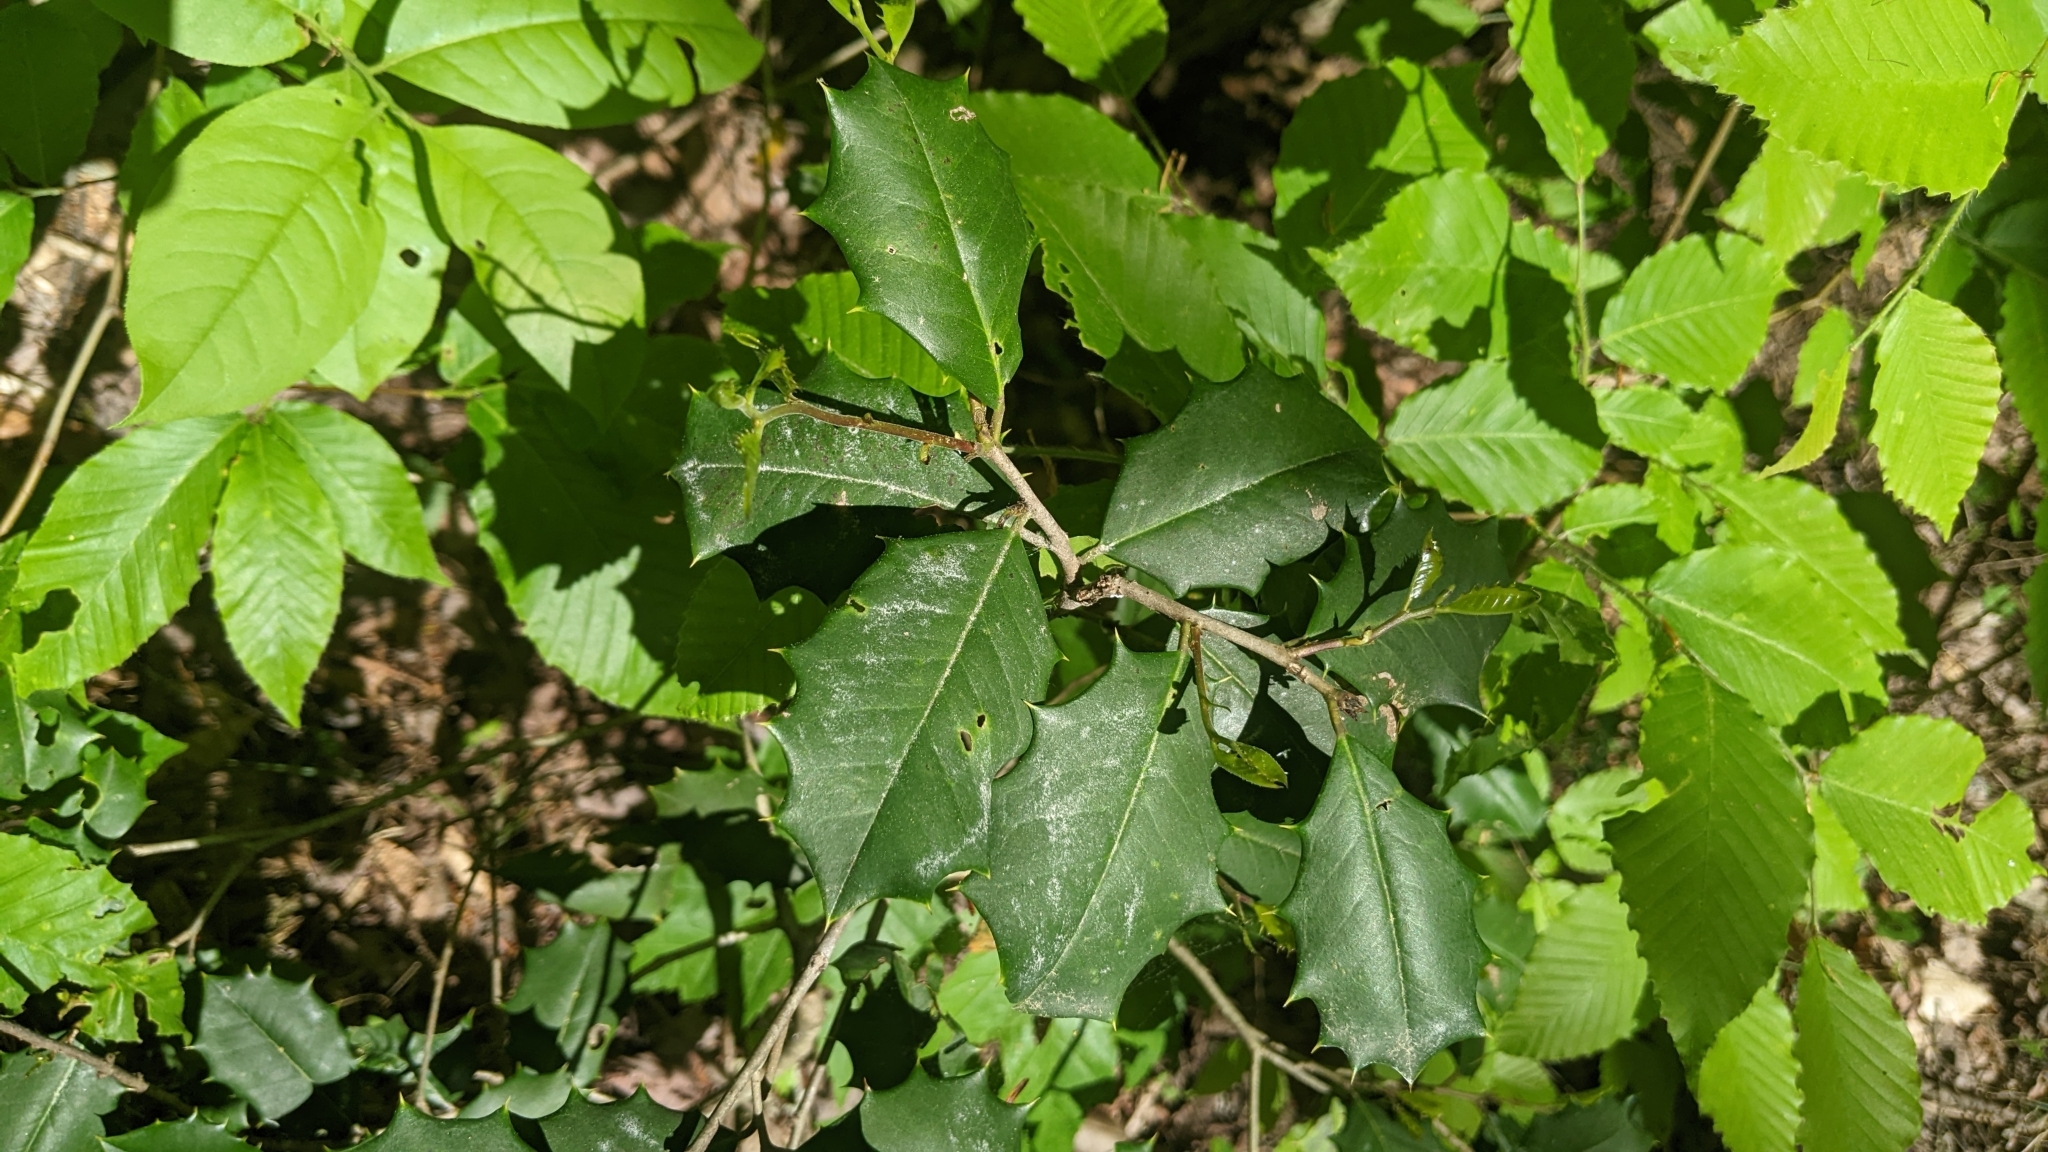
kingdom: Plantae
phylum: Tracheophyta
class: Magnoliopsida
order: Aquifoliales
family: Aquifoliaceae
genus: Ilex
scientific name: Ilex opaca
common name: American holly
